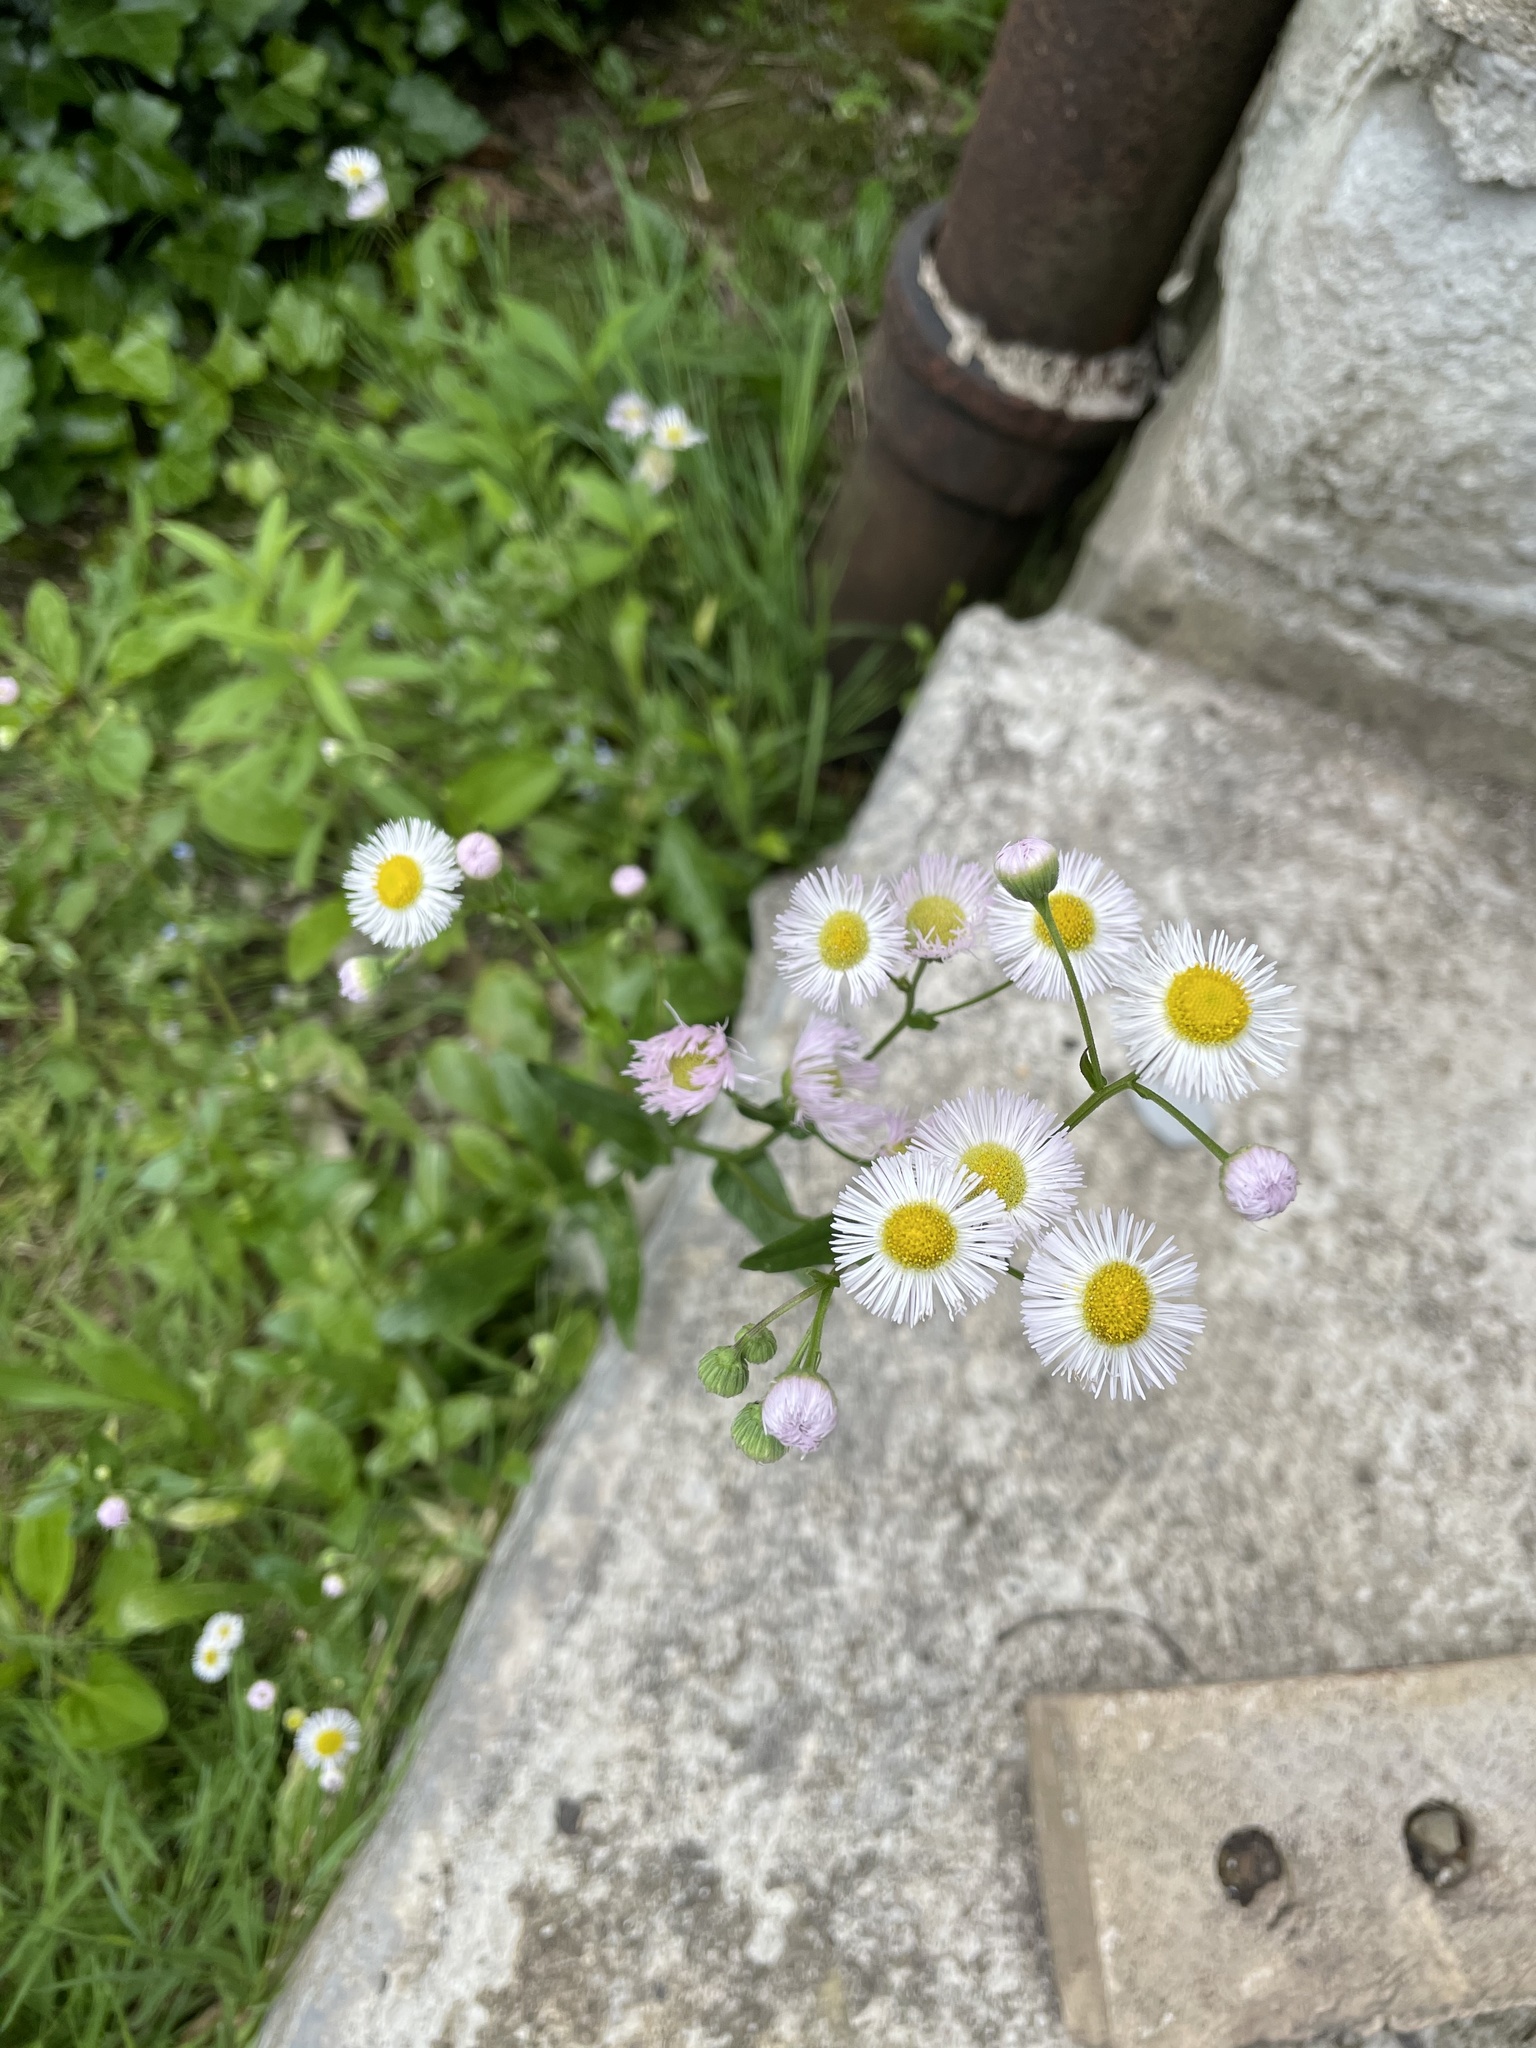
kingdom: Plantae
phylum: Tracheophyta
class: Magnoliopsida
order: Asterales
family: Asteraceae
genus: Erigeron
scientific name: Erigeron philadelphicus
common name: Robin's-plantain
